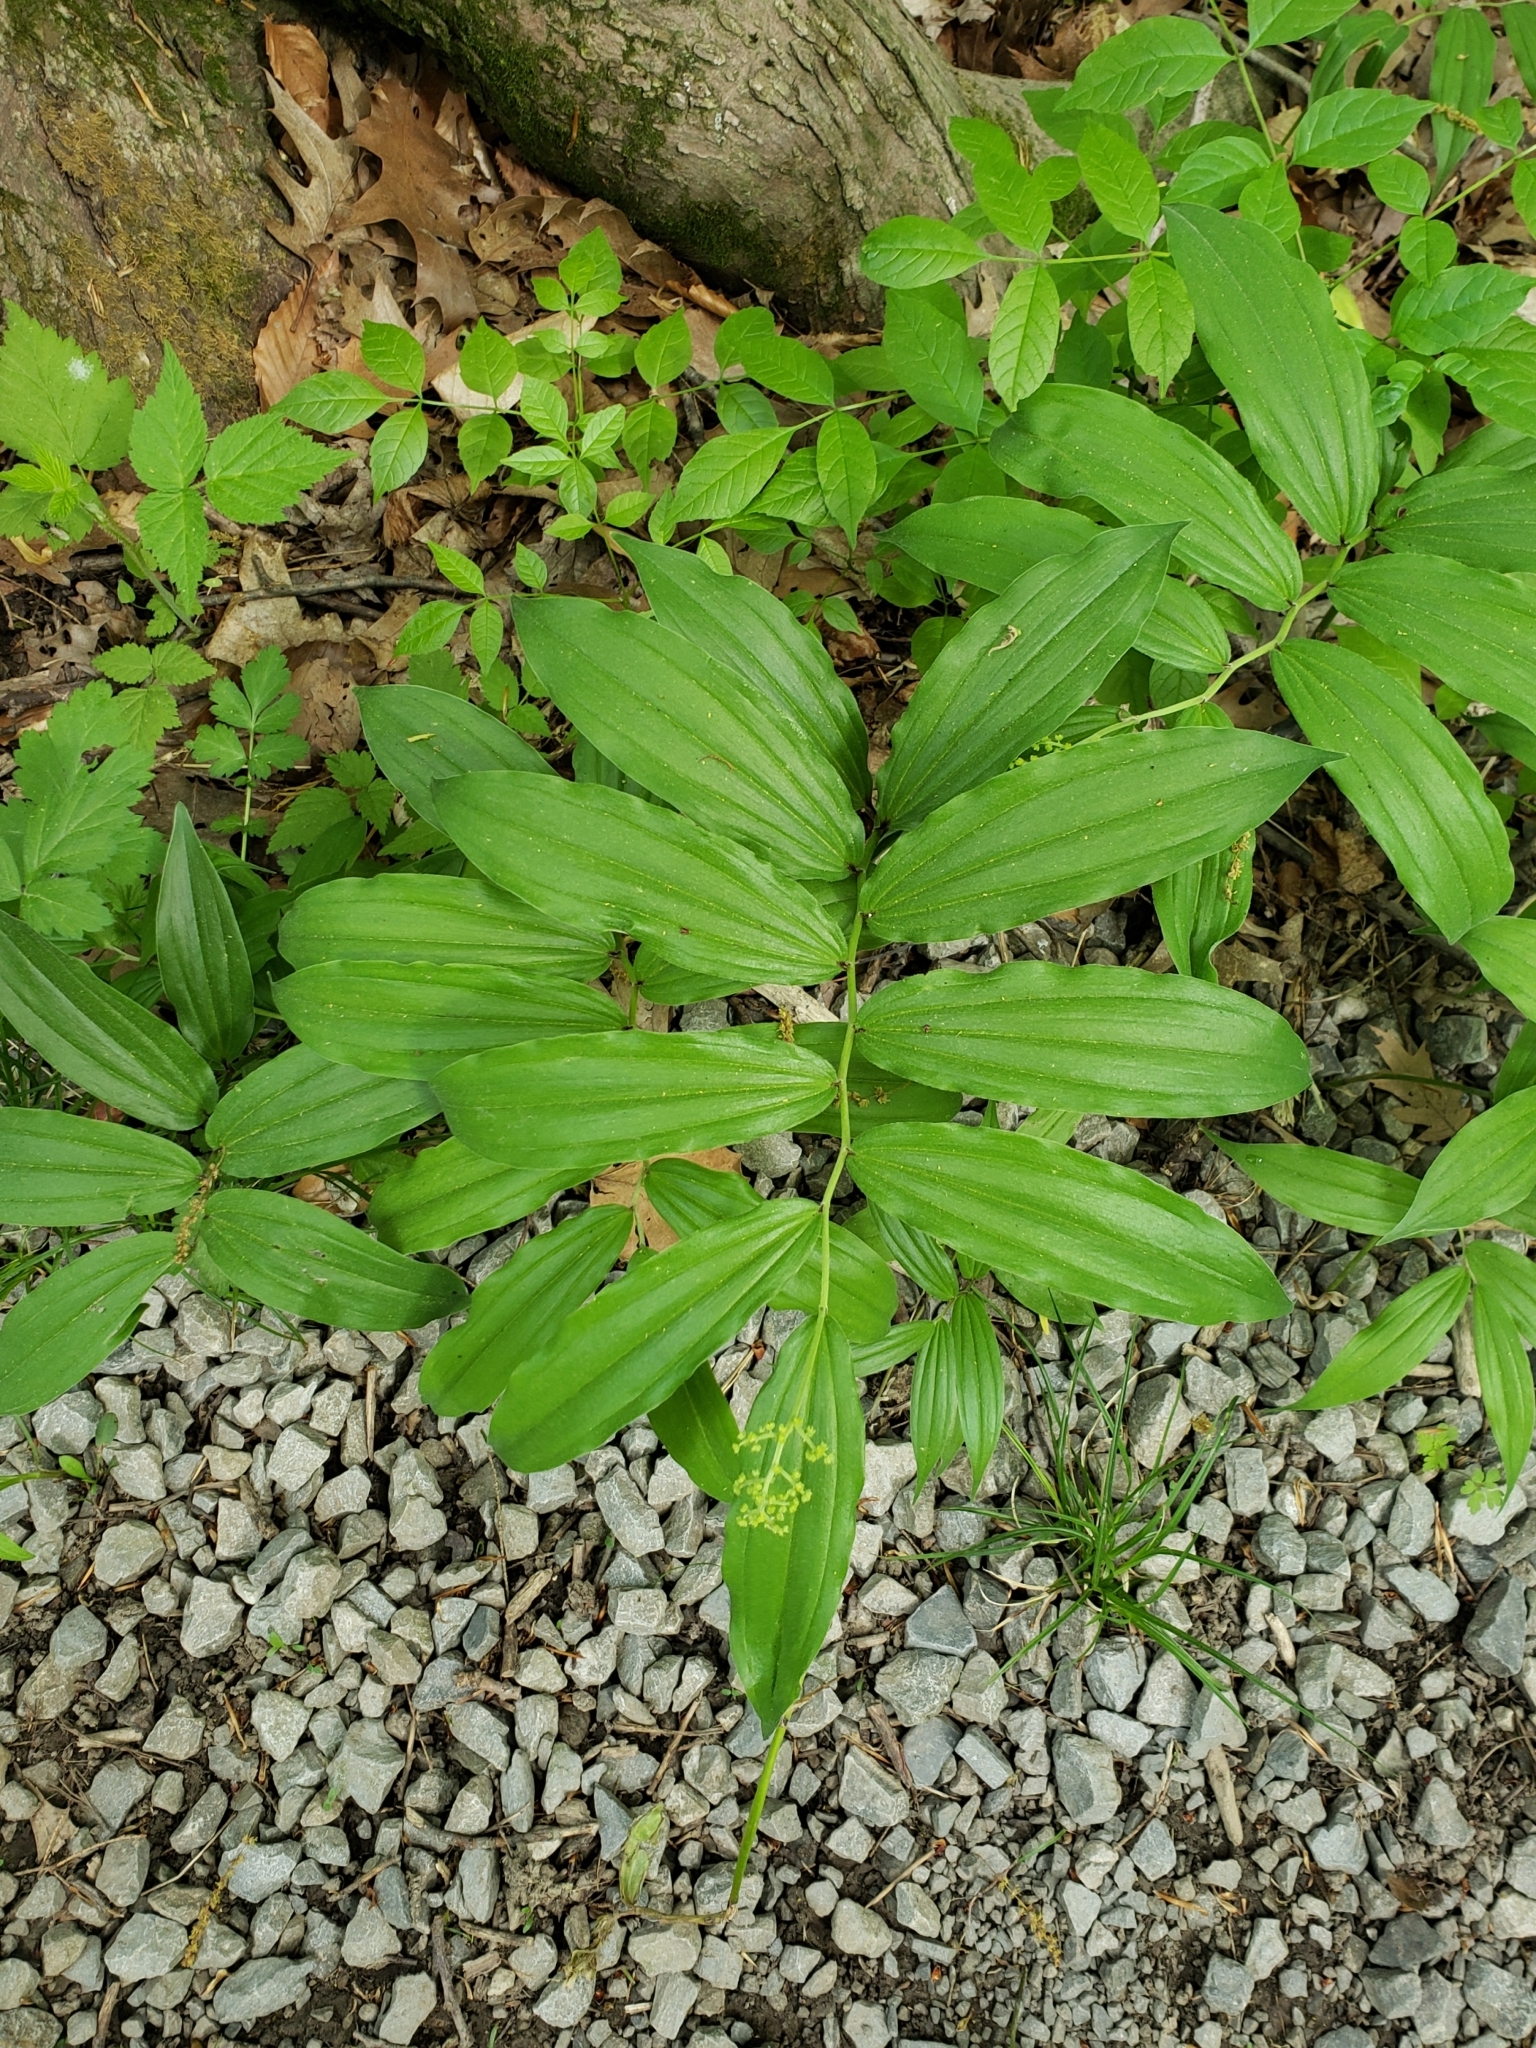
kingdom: Plantae
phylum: Tracheophyta
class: Liliopsida
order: Asparagales
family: Asparagaceae
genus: Maianthemum
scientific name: Maianthemum racemosum
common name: False spikenard
